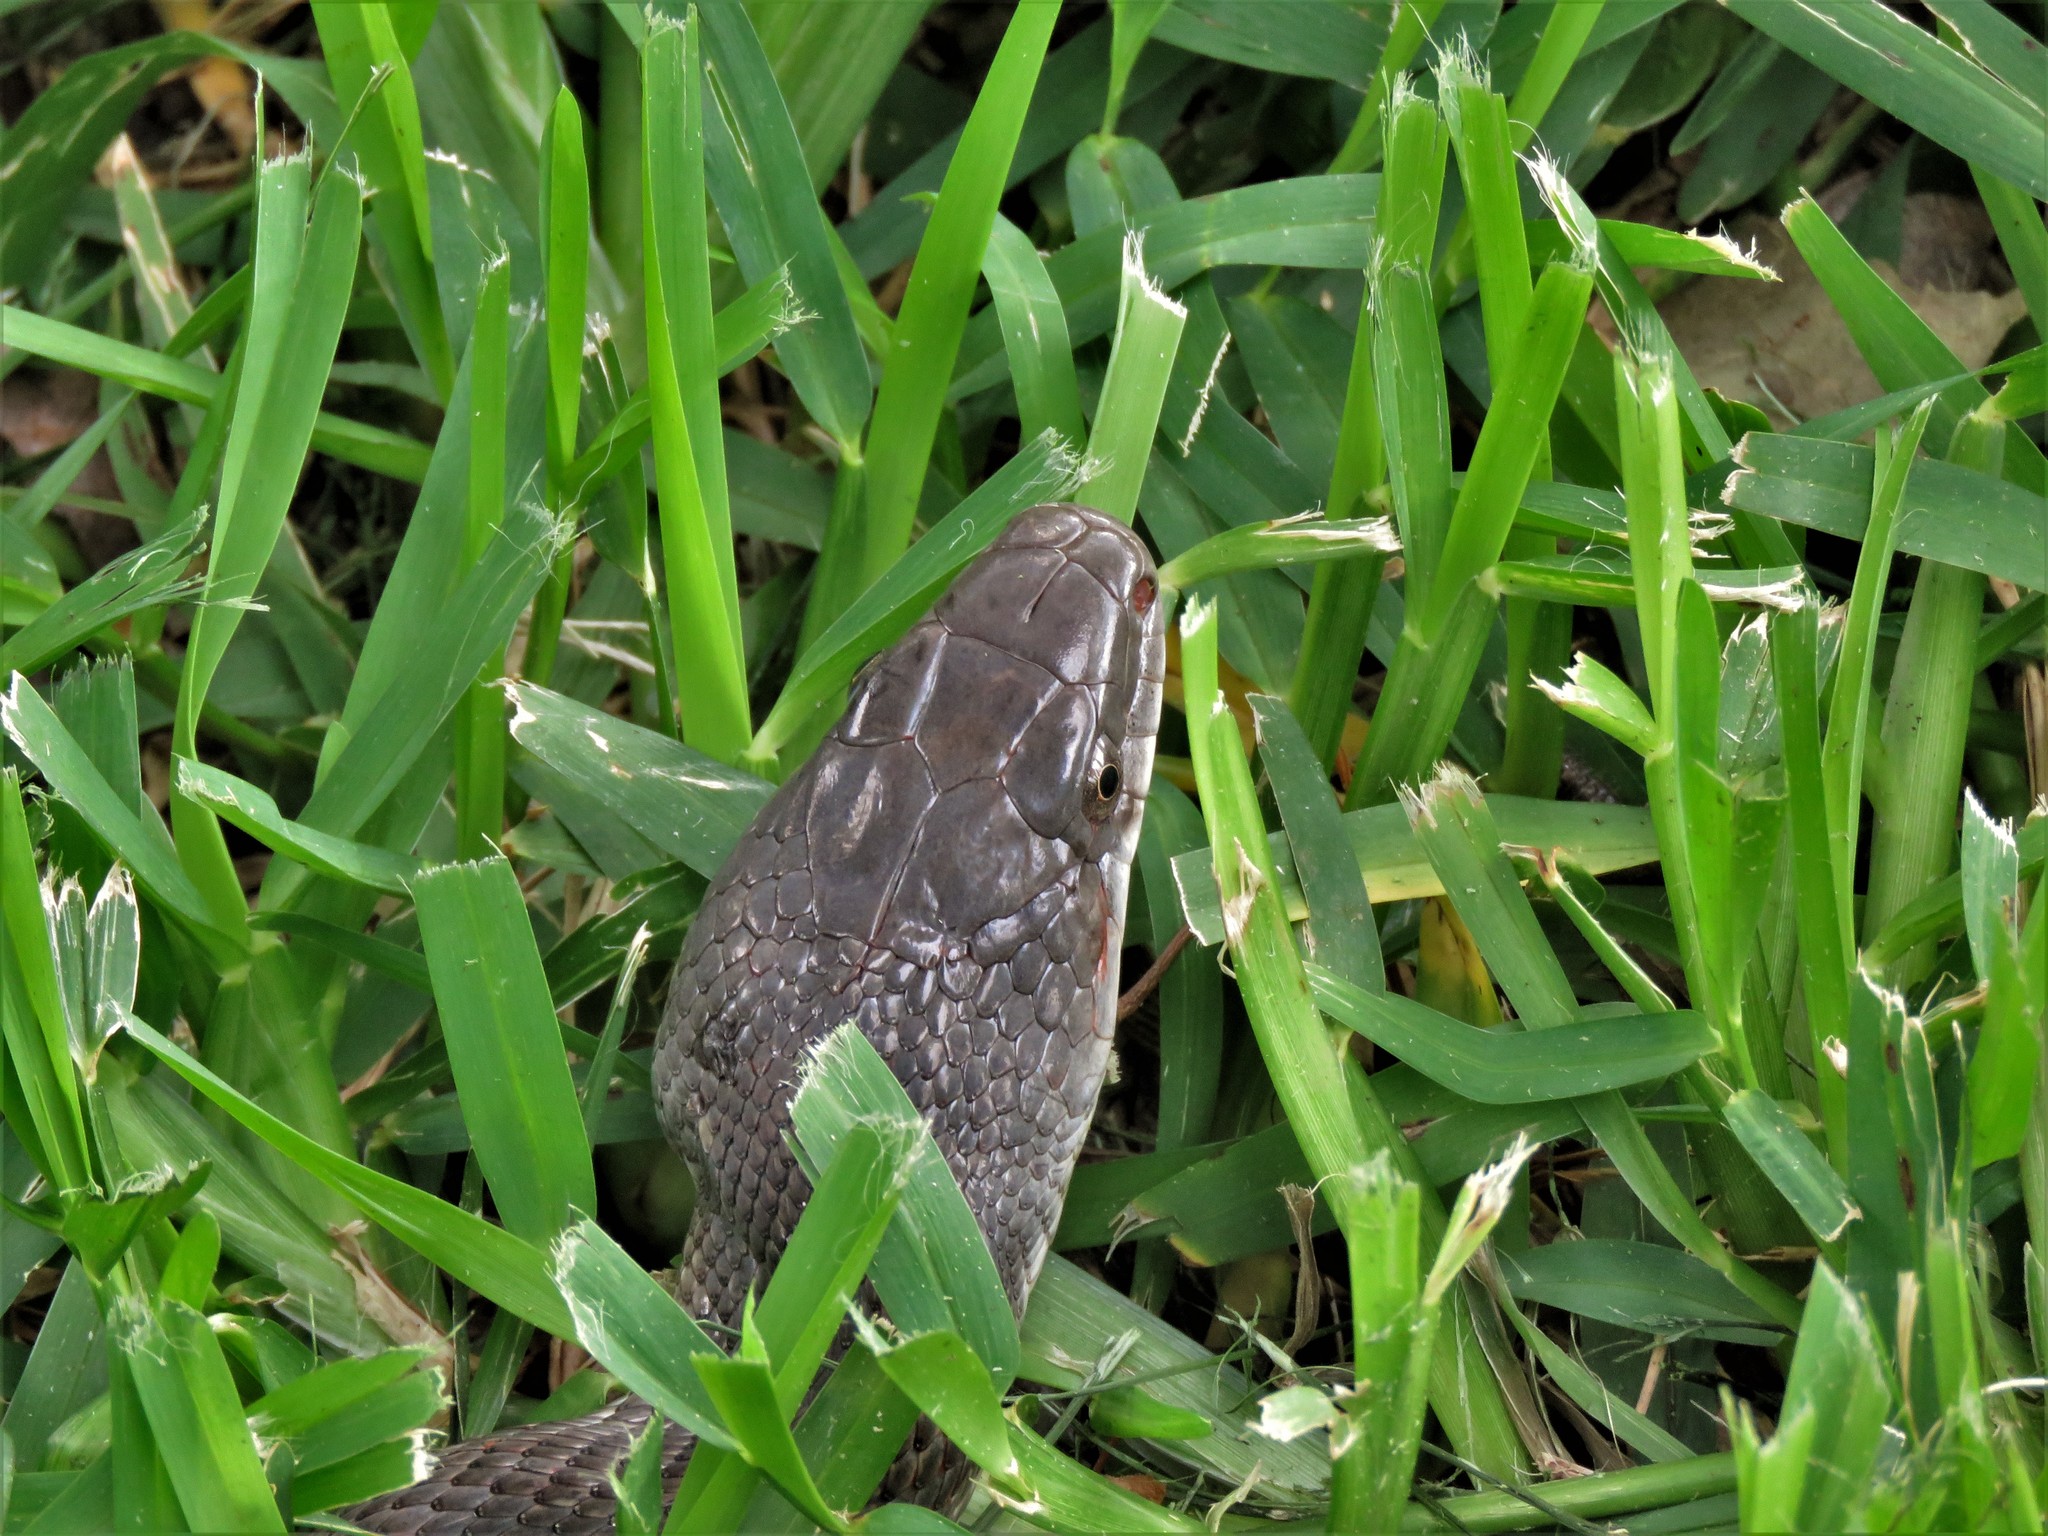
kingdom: Animalia
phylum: Chordata
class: Squamata
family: Colubridae
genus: Pantherophis
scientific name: Pantherophis obsoletus
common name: Black rat snake
